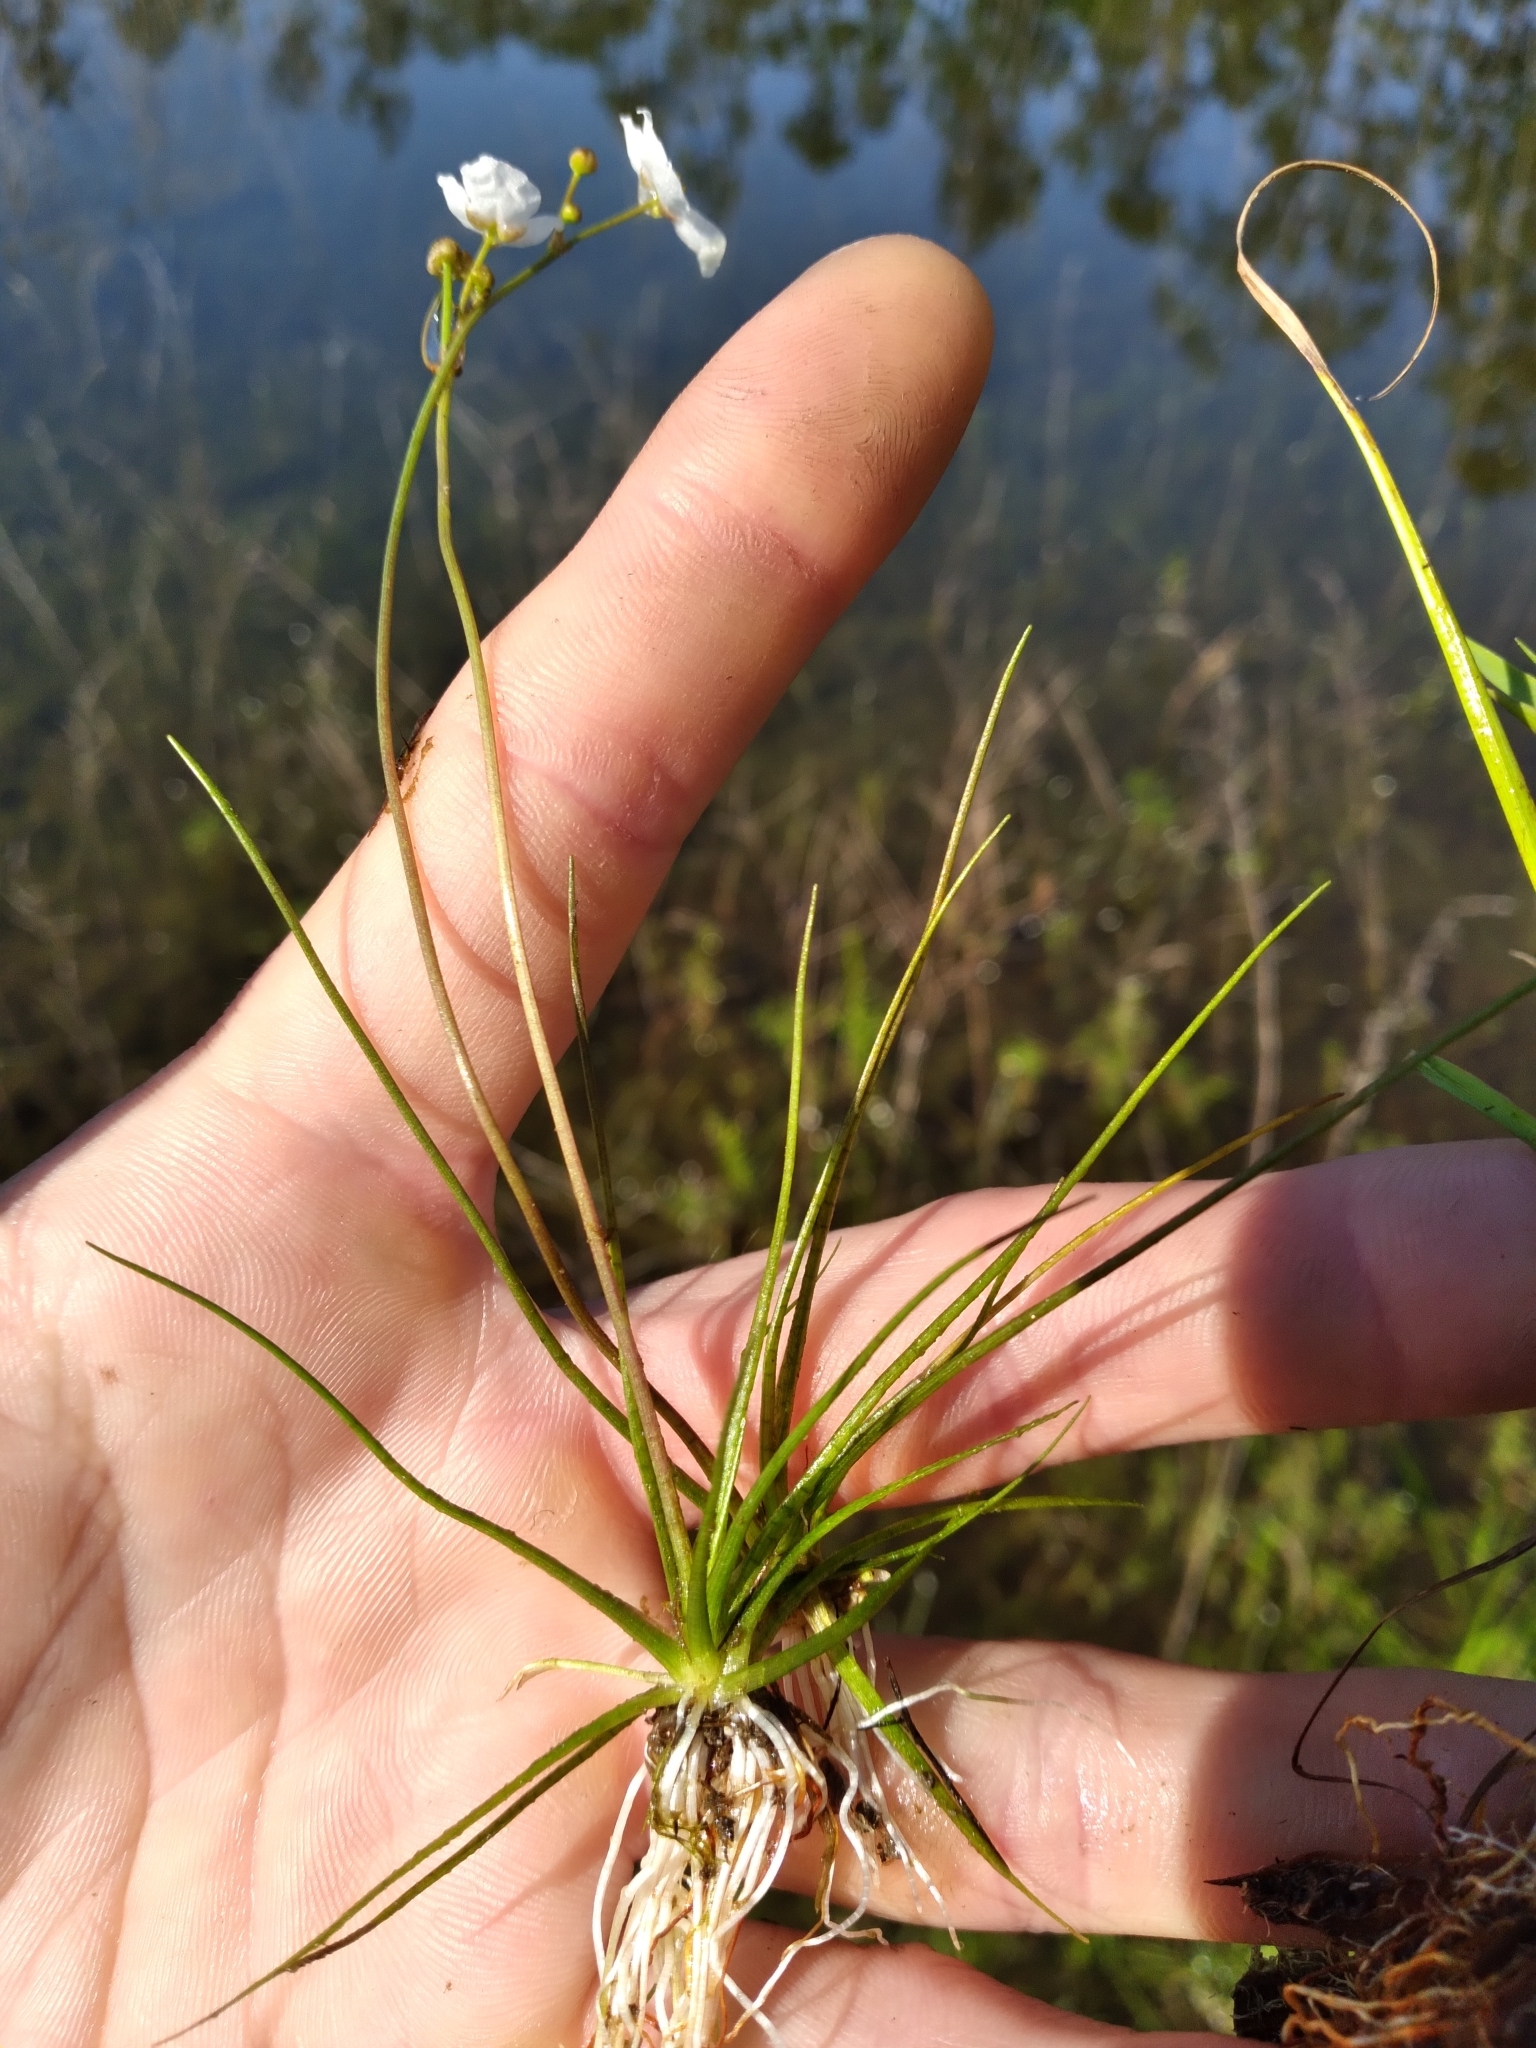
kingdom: Plantae
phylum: Tracheophyta
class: Liliopsida
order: Alismatales
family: Alismataceae
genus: Sagittaria
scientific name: Sagittaria isoetiformis
